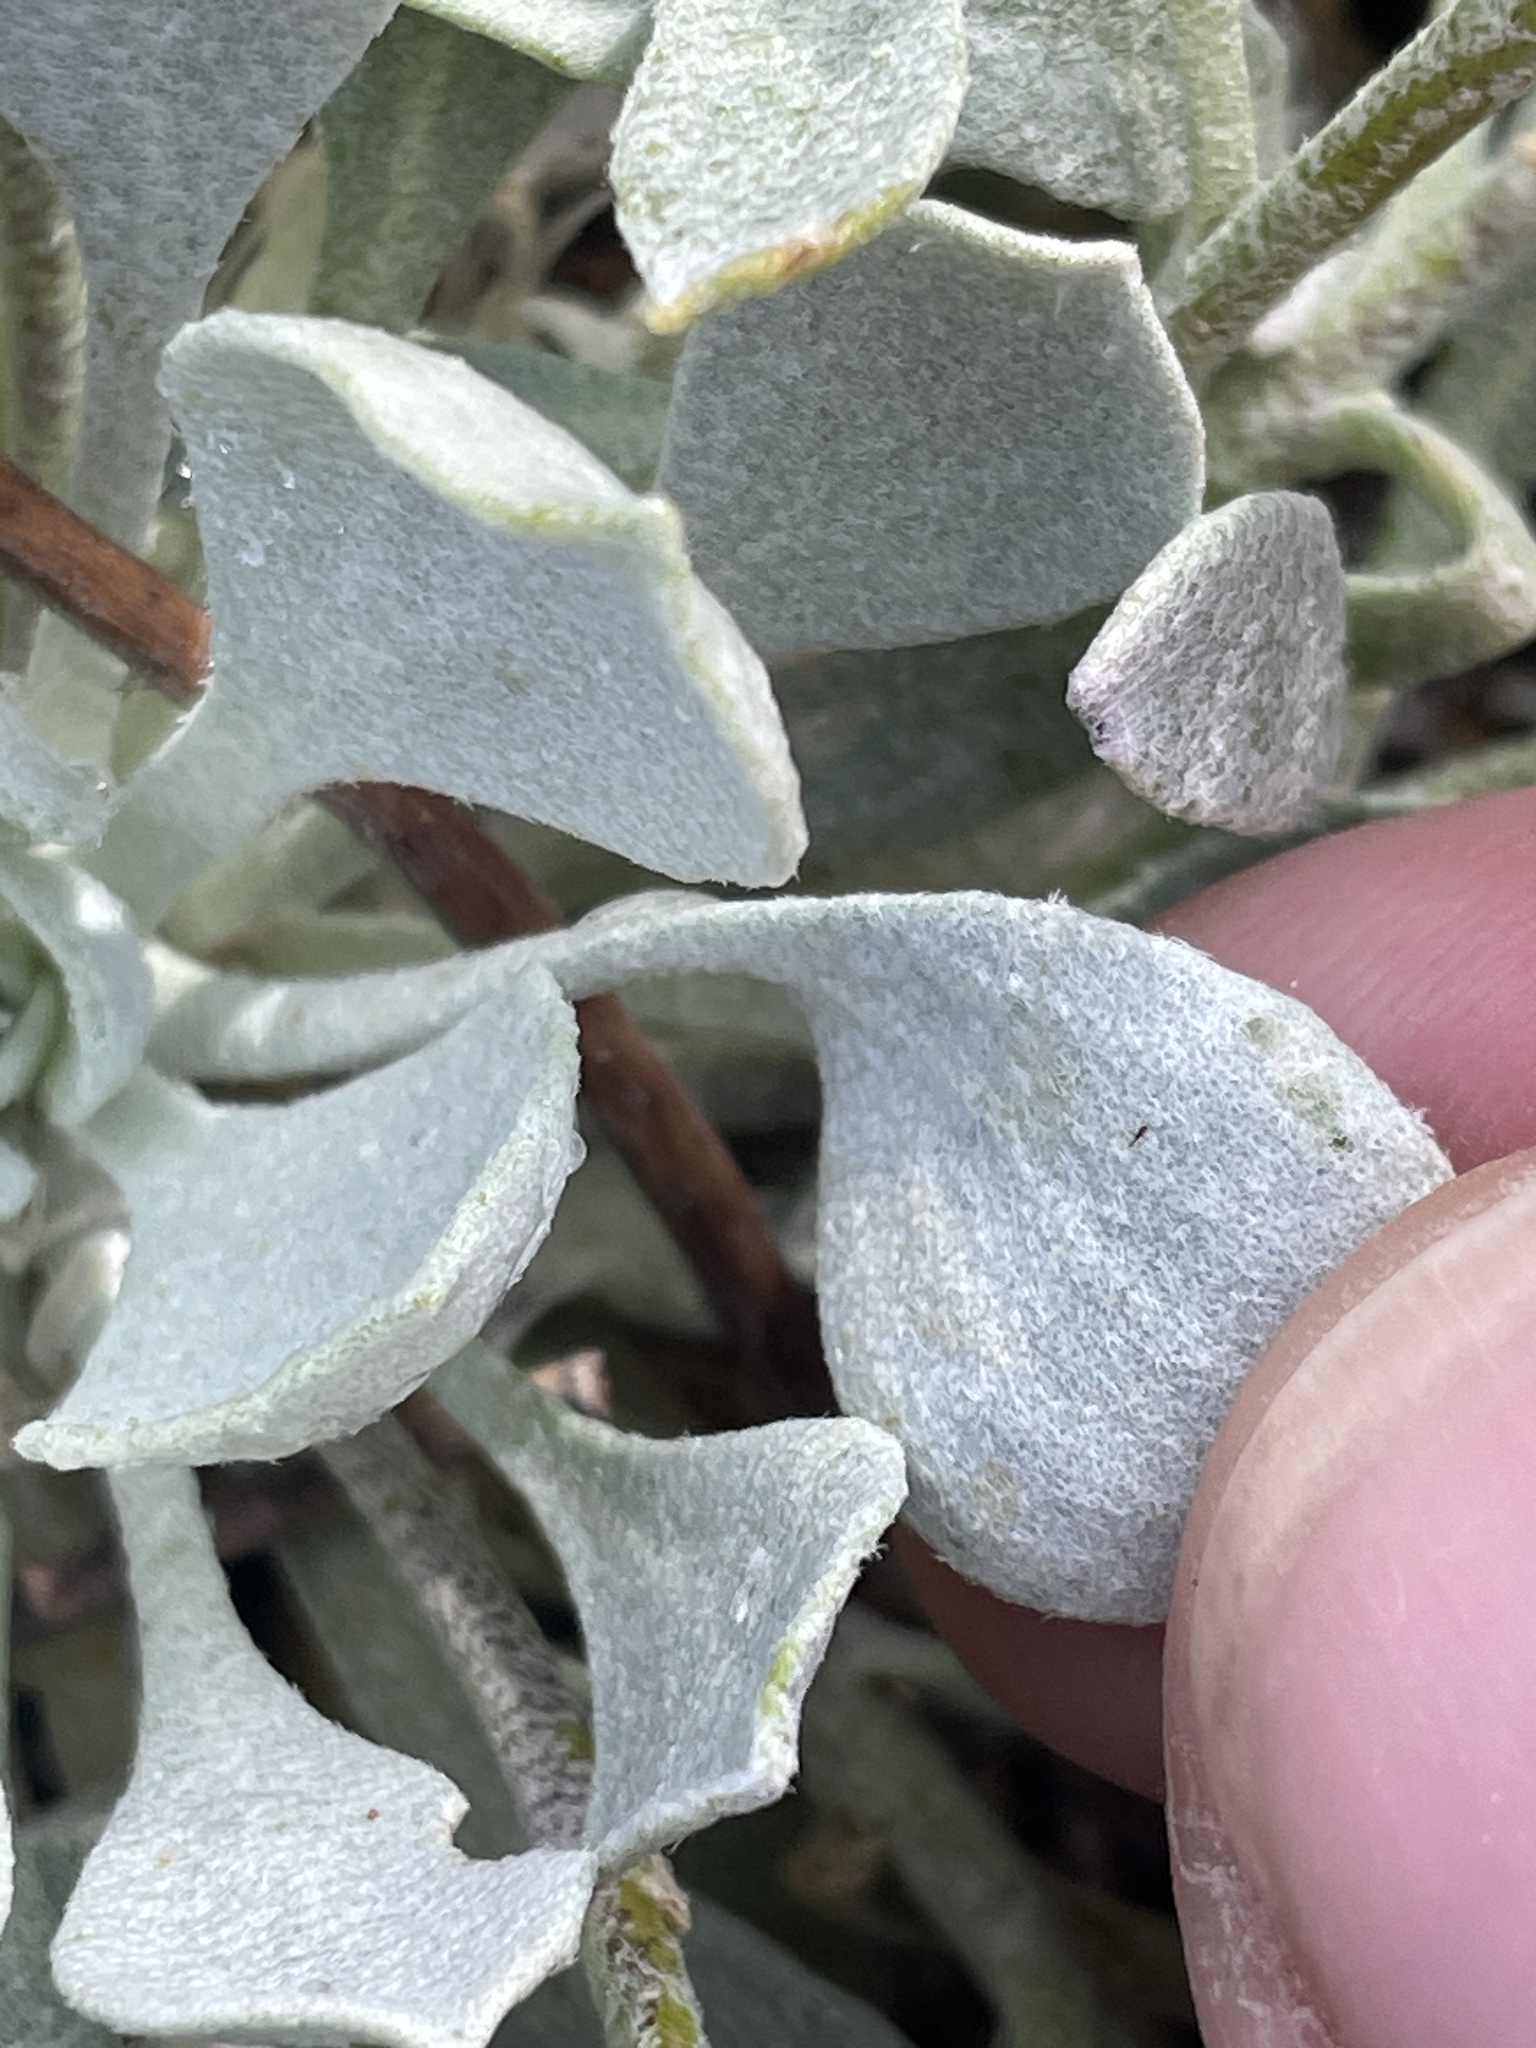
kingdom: Plantae
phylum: Tracheophyta
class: Magnoliopsida
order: Brassicales
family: Brassicaceae
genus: Physaria
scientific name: Physaria chambersii
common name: Chamber's twinpod
